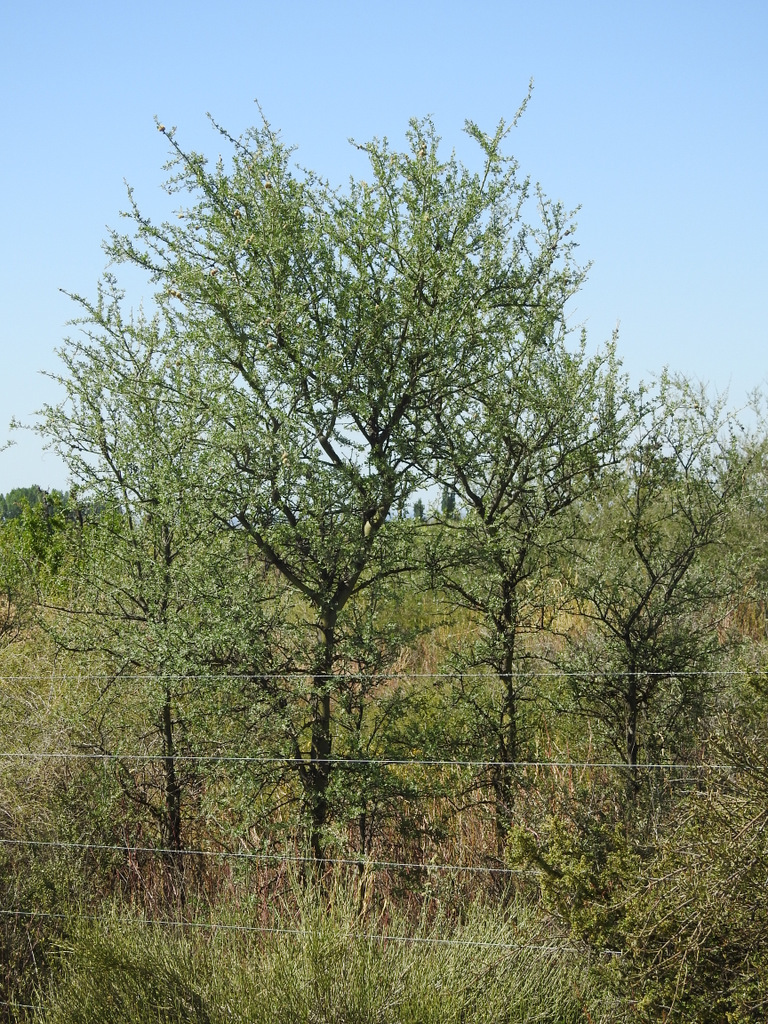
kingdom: Plantae
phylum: Tracheophyta
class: Magnoliopsida
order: Fabales
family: Fabaceae
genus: Geoffroea
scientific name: Geoffroea decorticans
